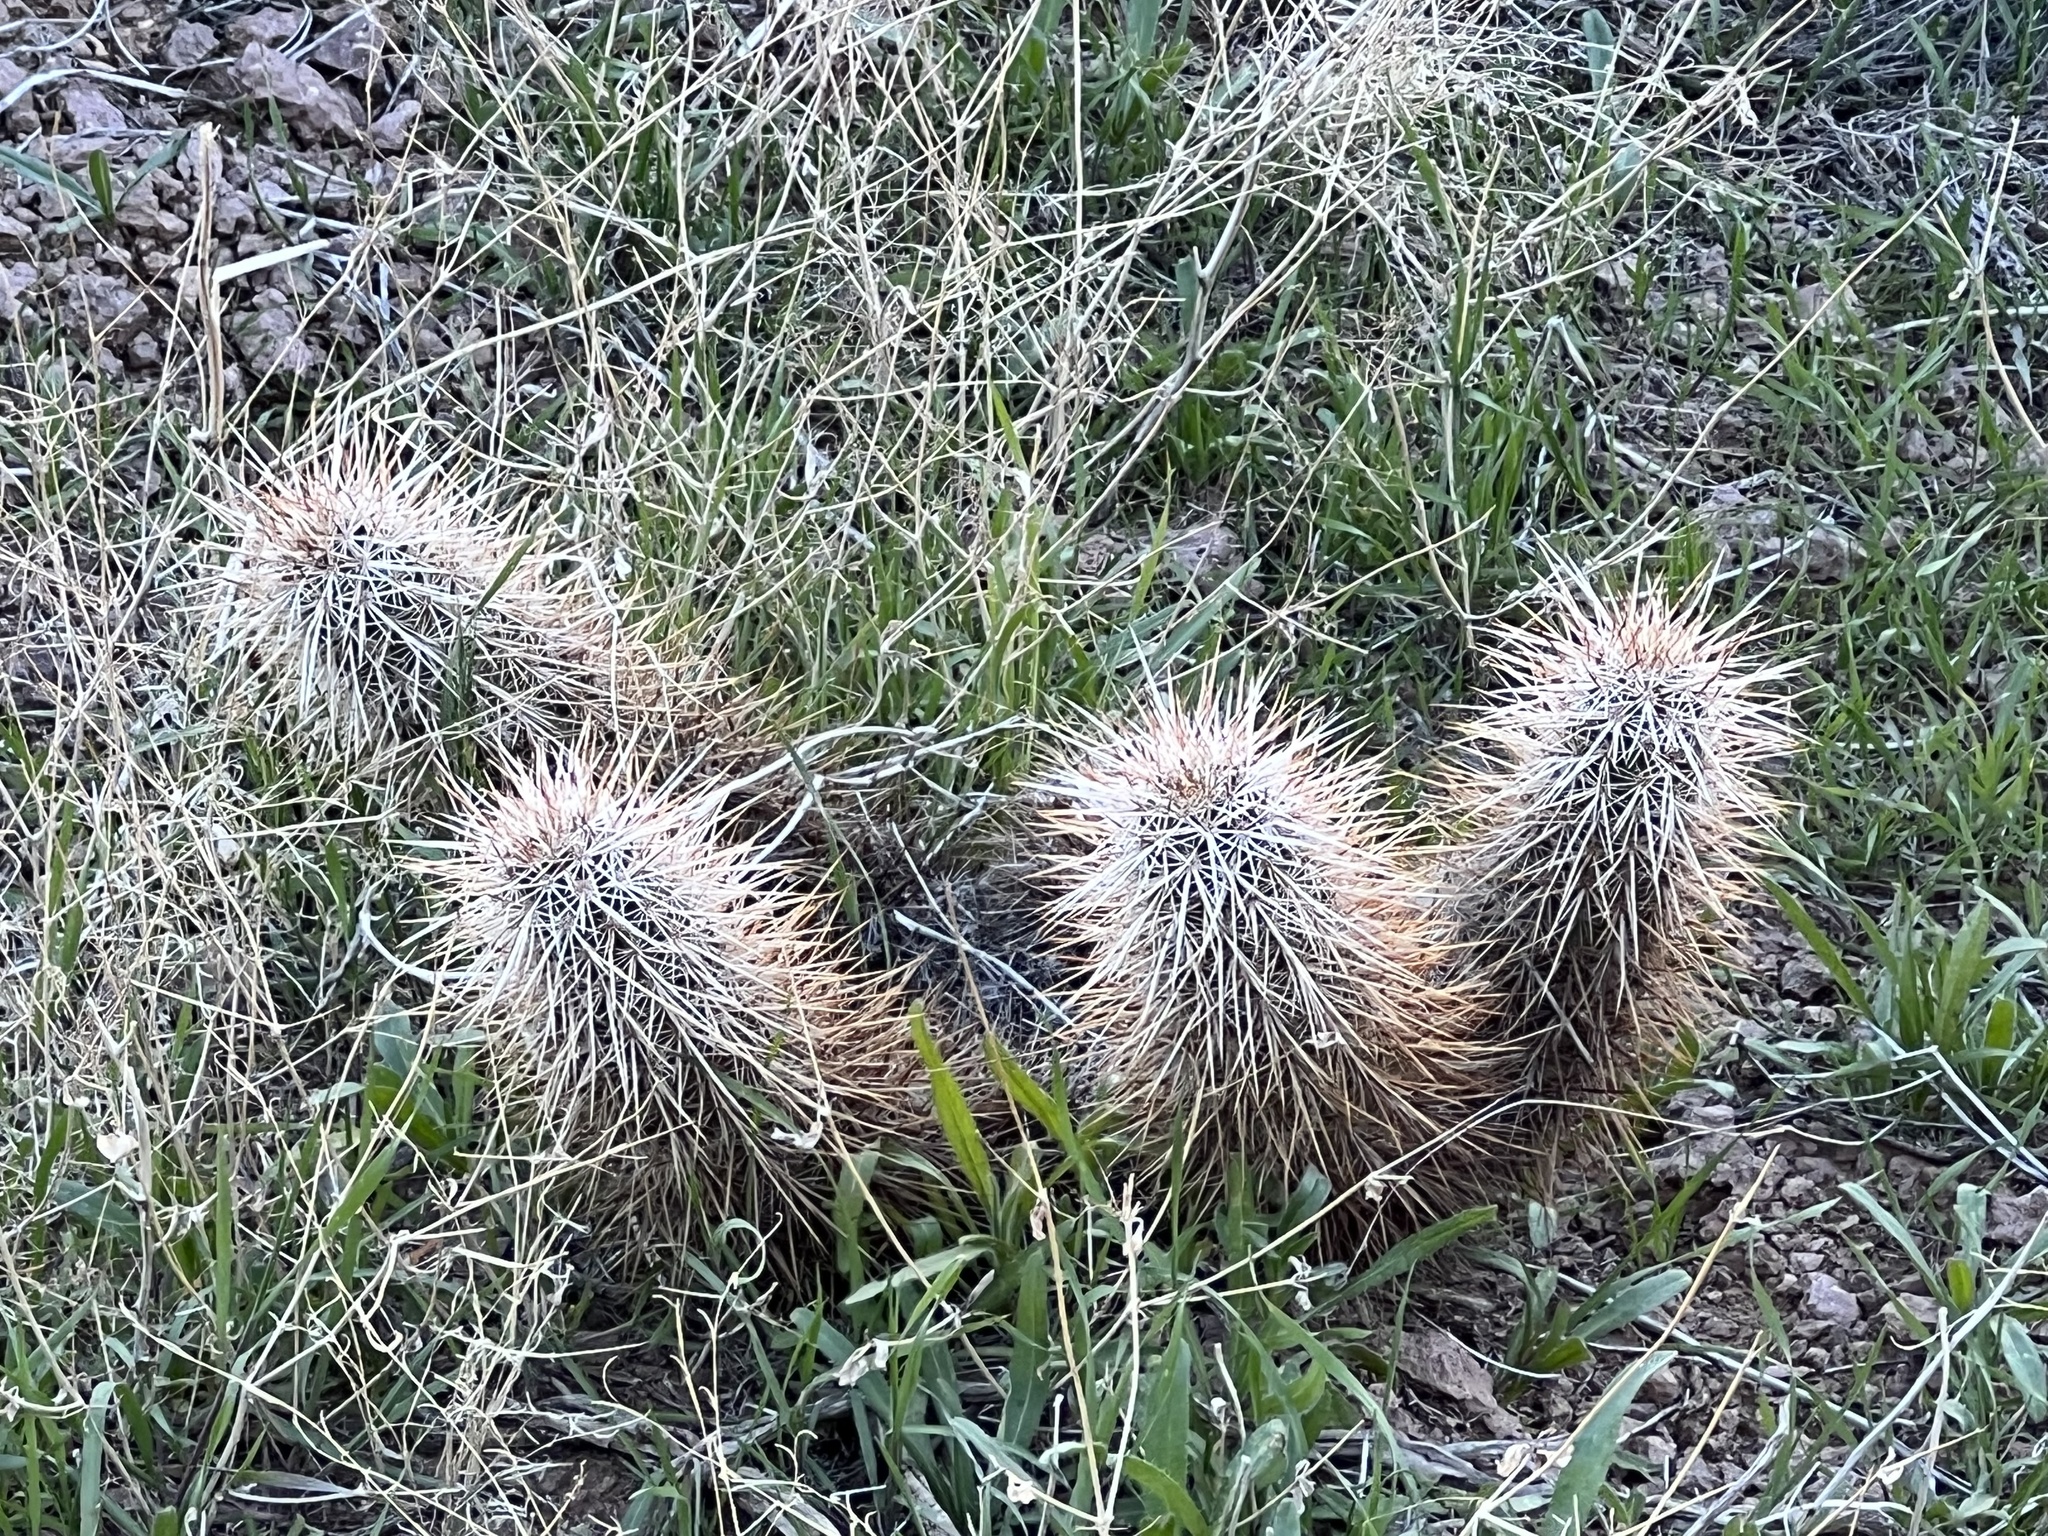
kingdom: Plantae
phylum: Tracheophyta
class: Magnoliopsida
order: Caryophyllales
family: Cactaceae
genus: Echinocereus
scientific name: Echinocereus engelmannii
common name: Engelmann's hedgehog cactus
